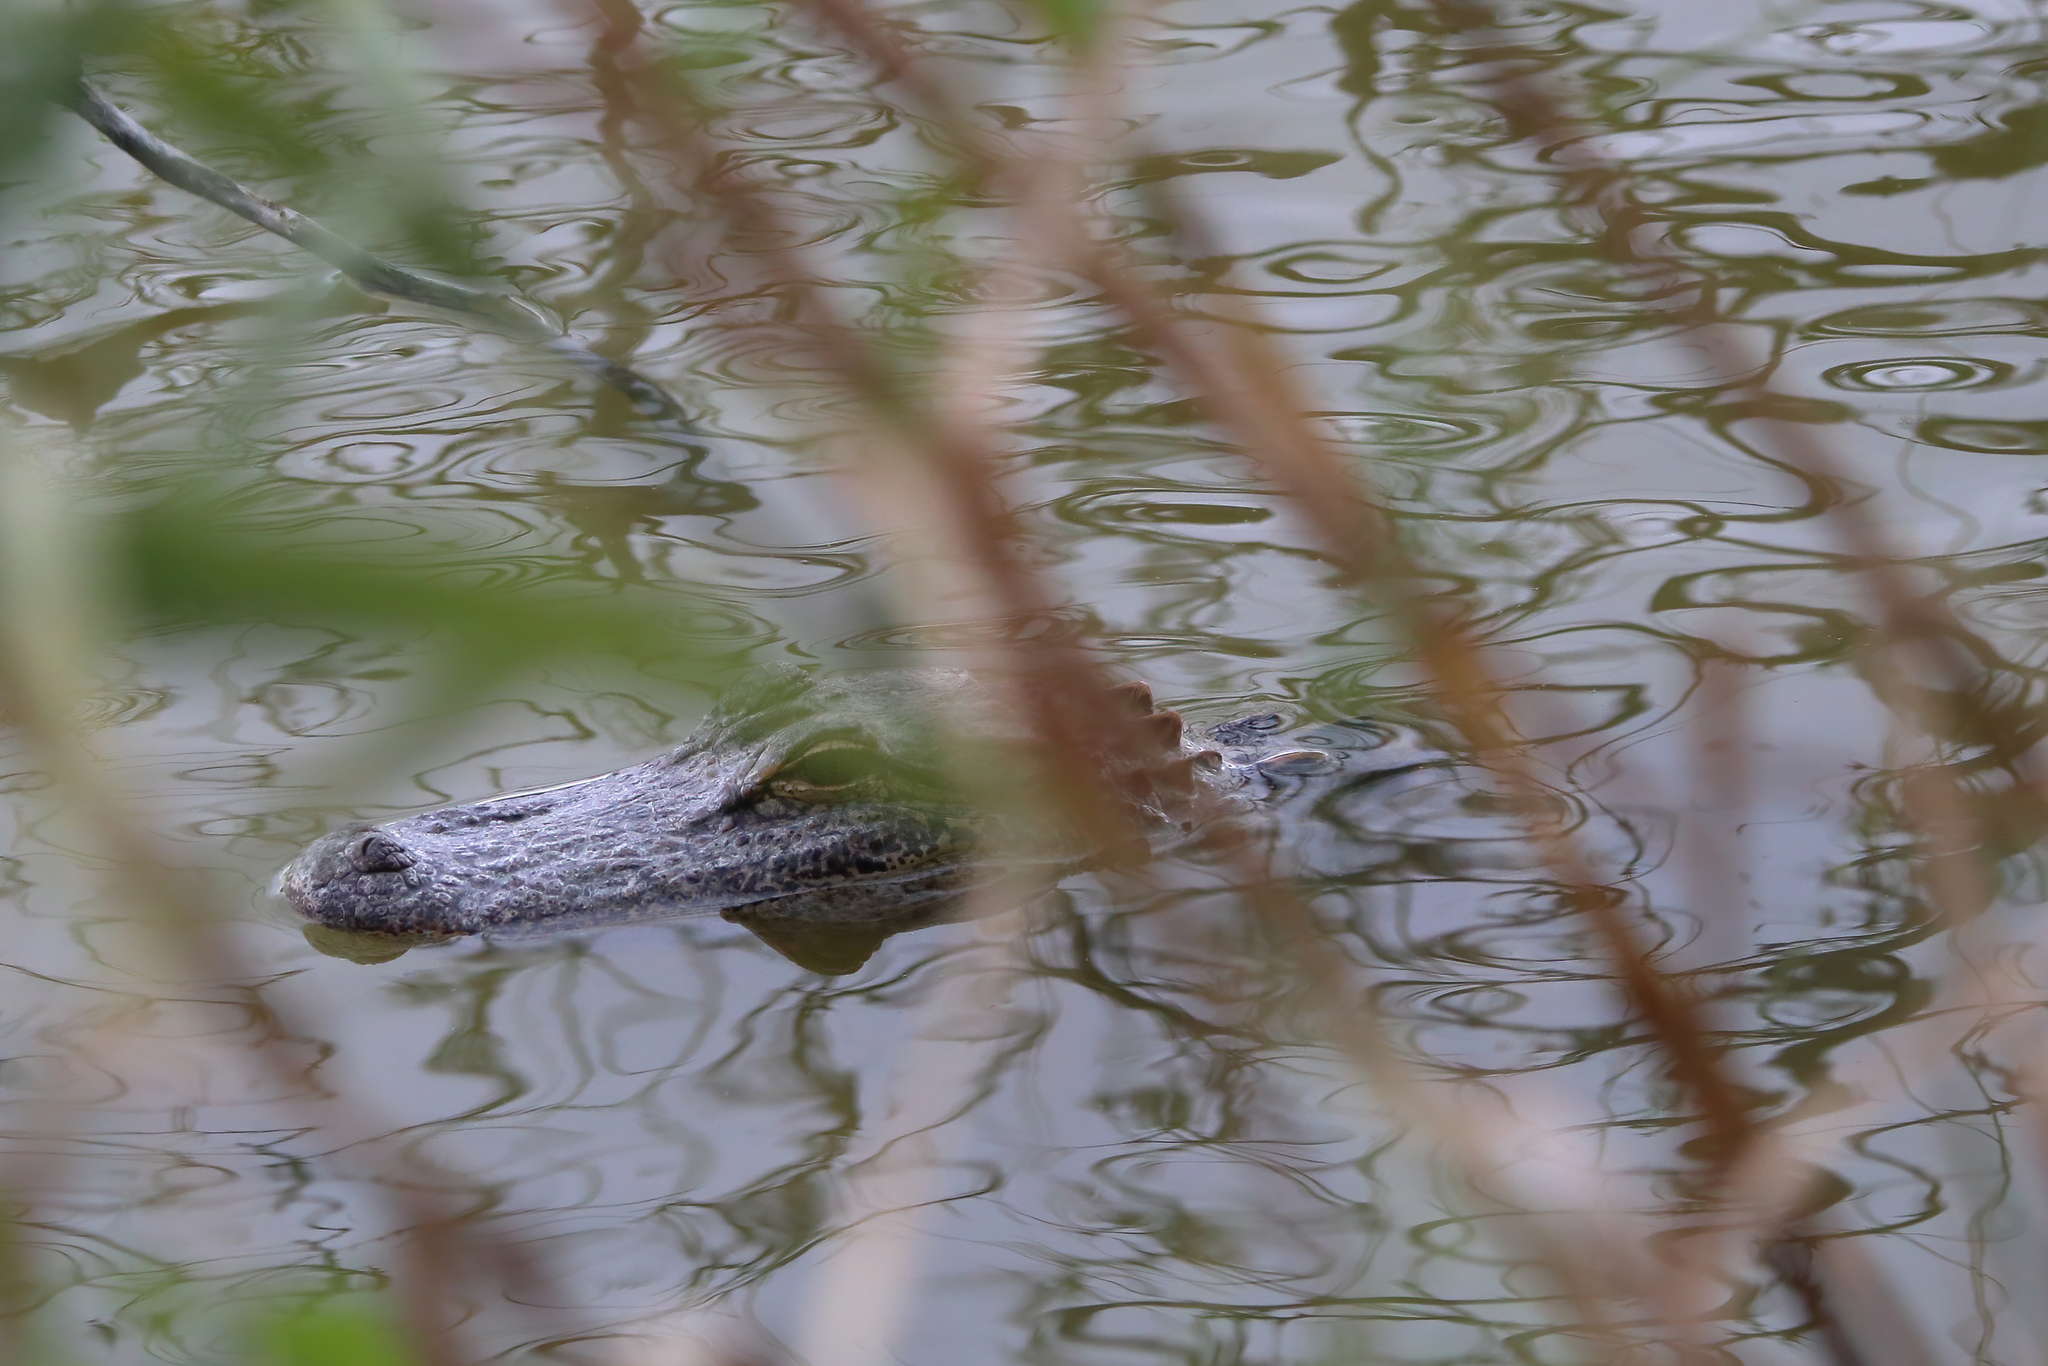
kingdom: Animalia
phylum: Chordata
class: Crocodylia
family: Alligatoridae
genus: Alligator
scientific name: Alligator mississippiensis
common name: American alligator
